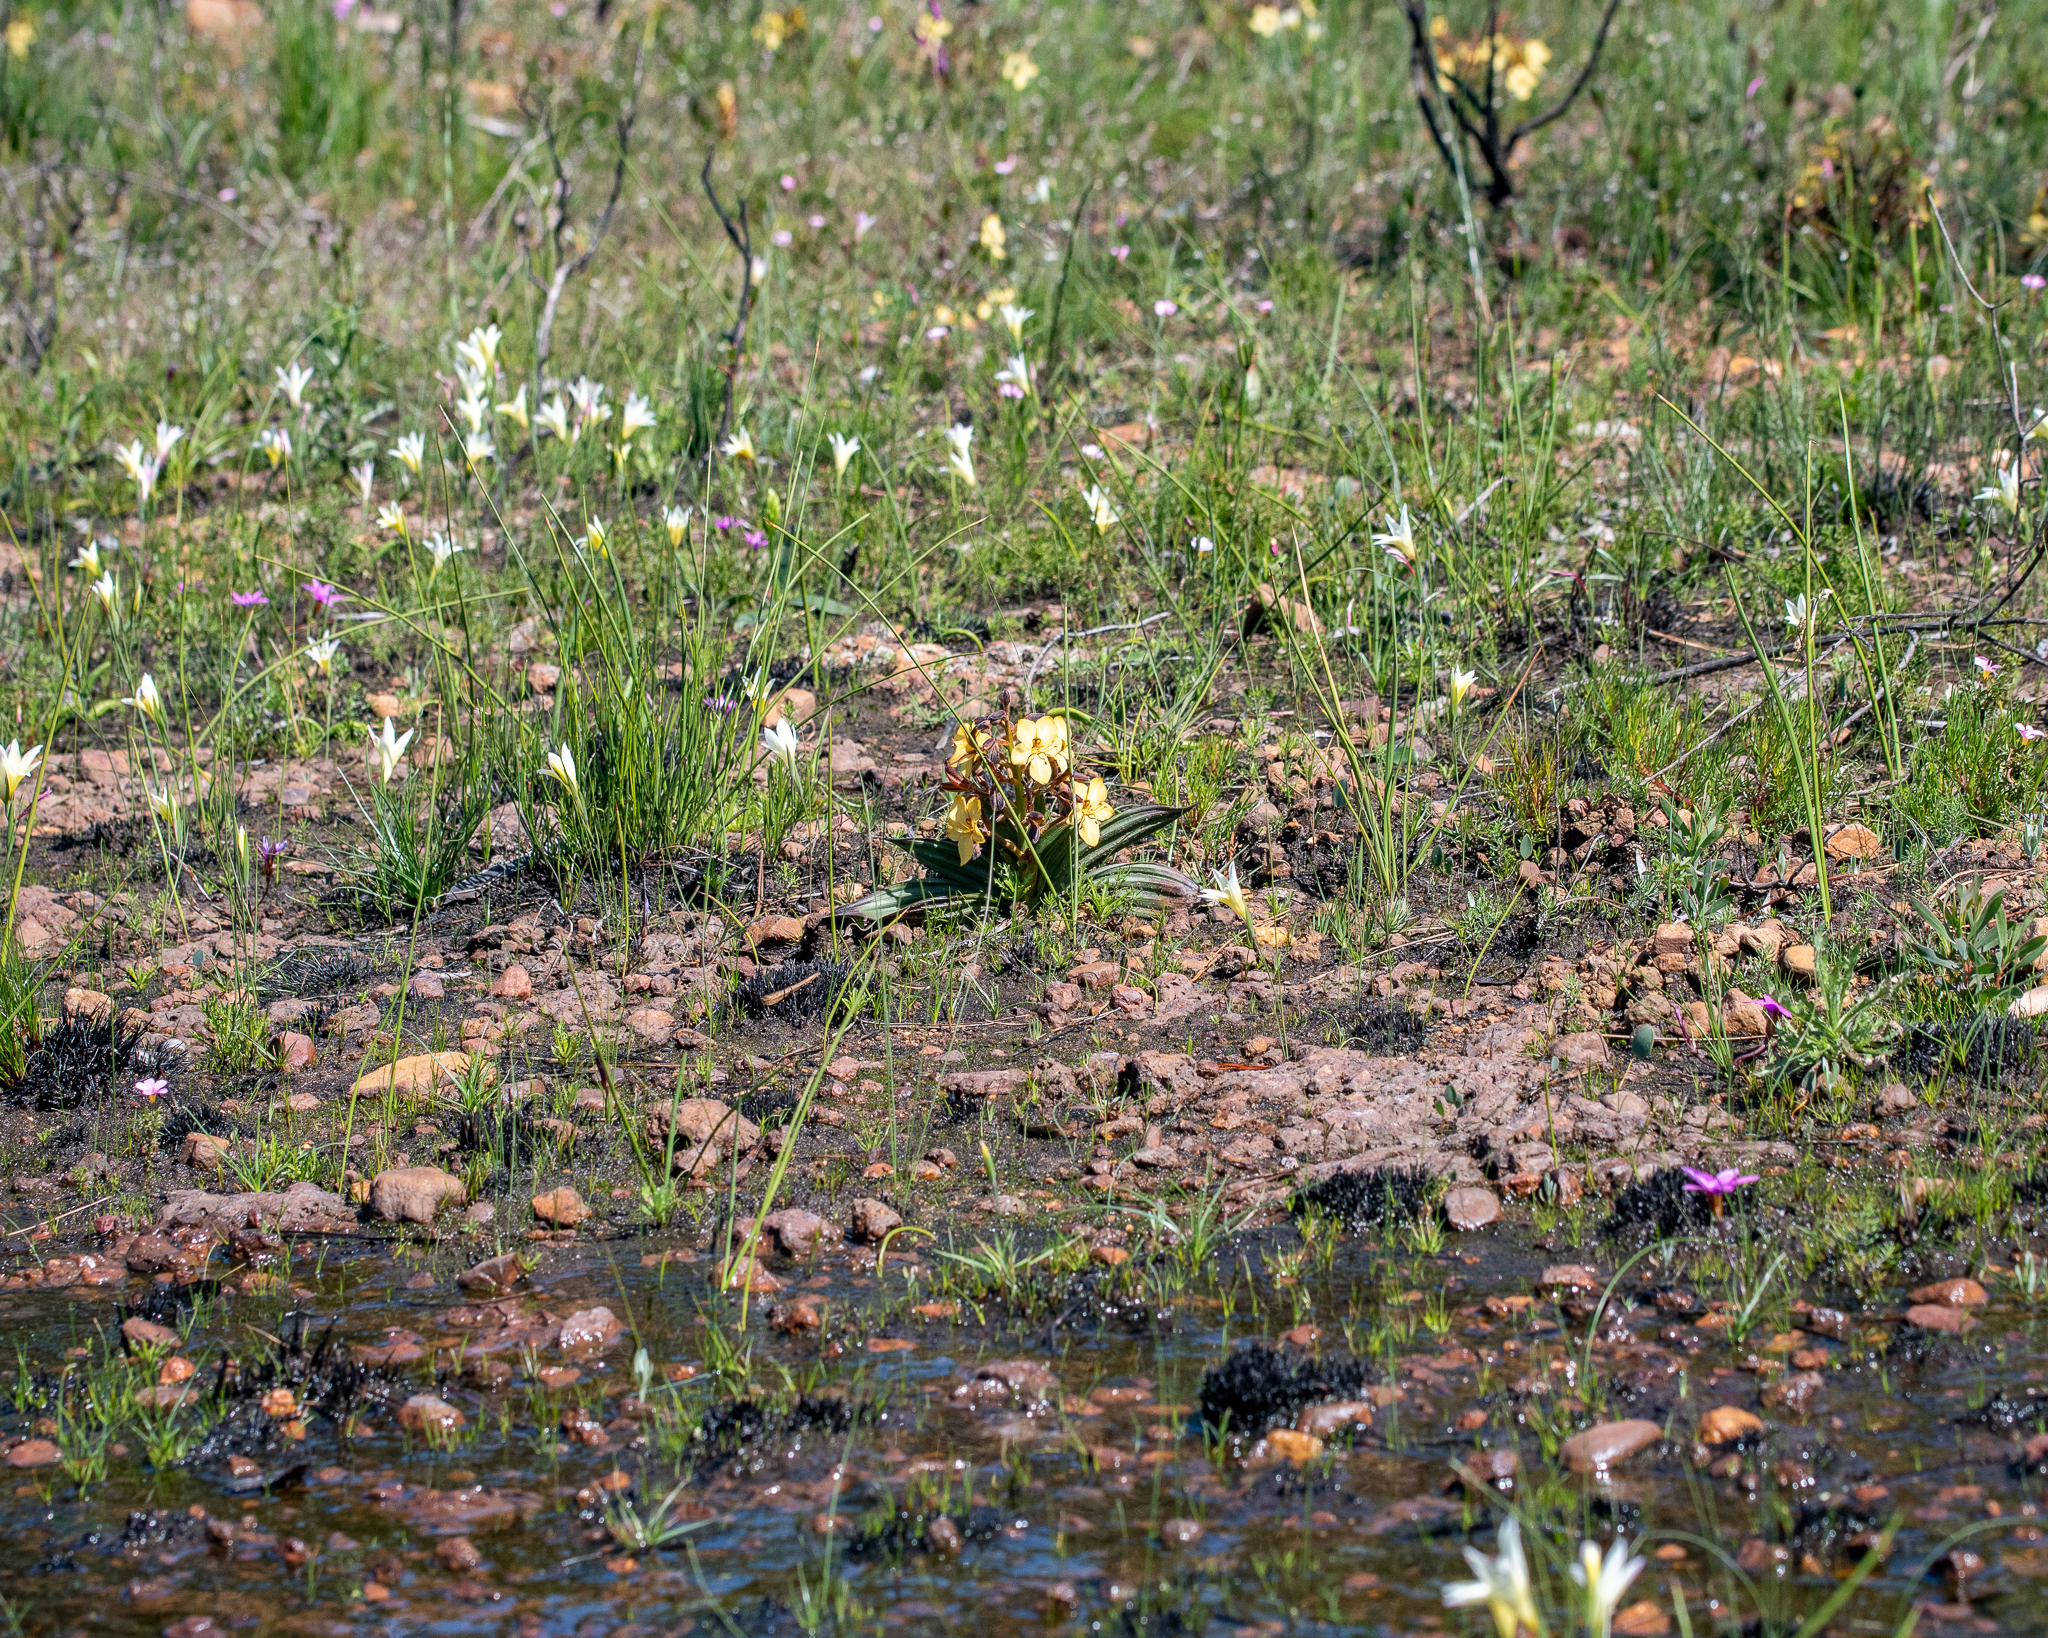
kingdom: Plantae
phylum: Tracheophyta
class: Liliopsida
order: Asparagales
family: Iridaceae
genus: Gladiolus
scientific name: Gladiolus trichonemifolius
